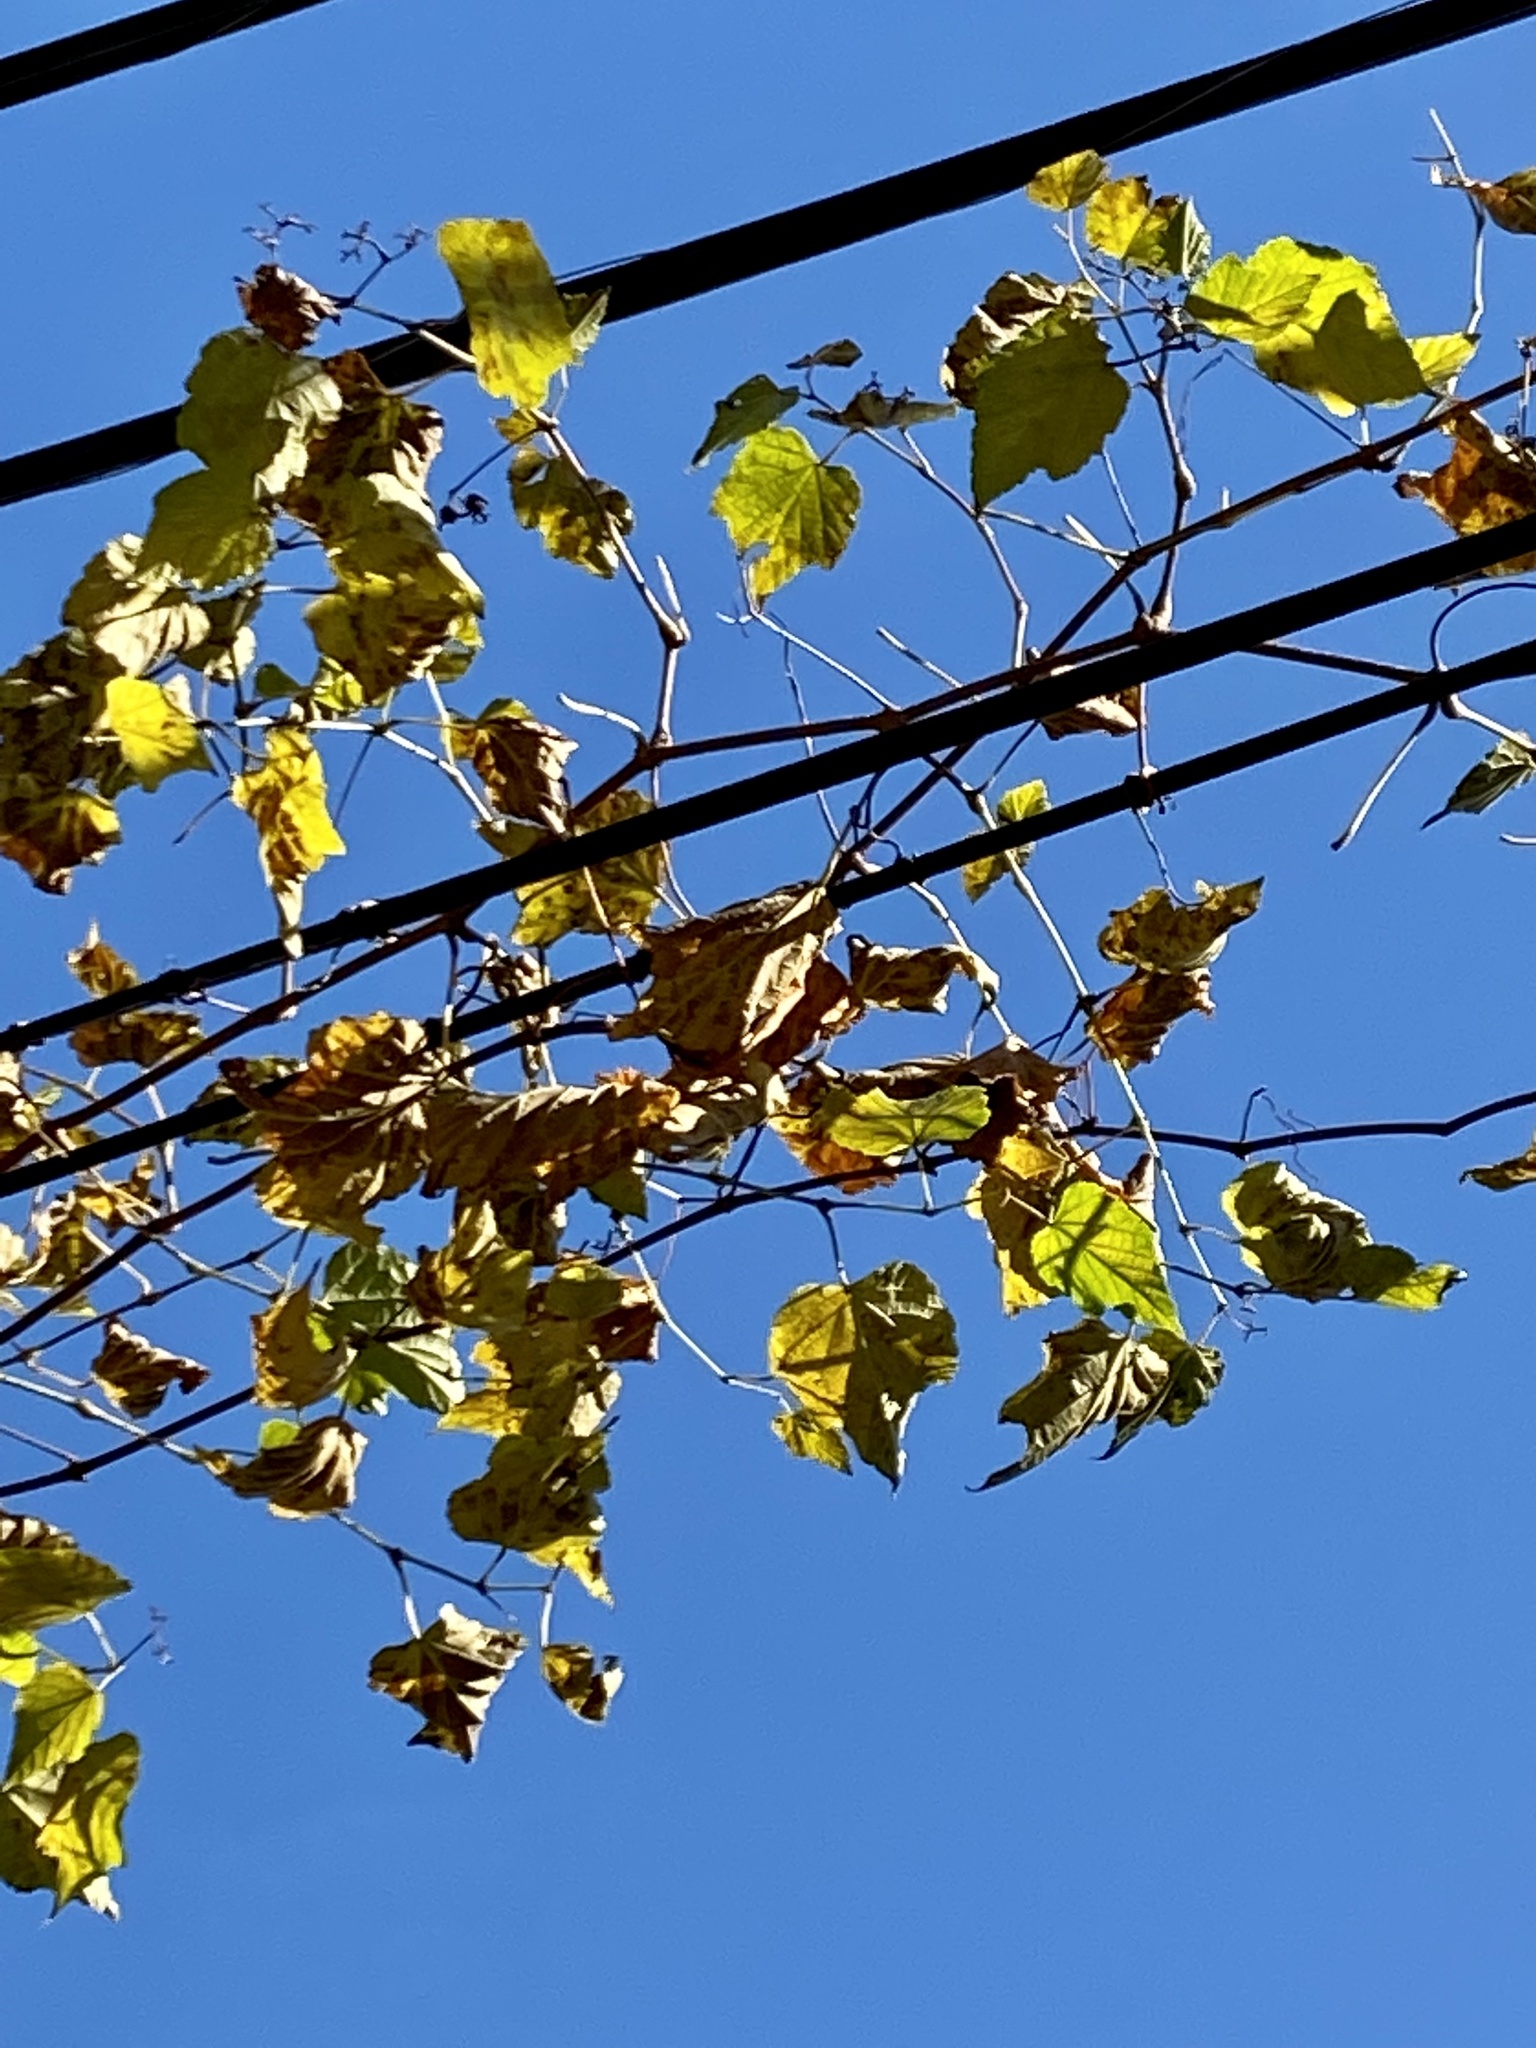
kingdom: Plantae
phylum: Tracheophyta
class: Magnoliopsida
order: Vitales
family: Vitaceae
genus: Ampelopsis
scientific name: Ampelopsis glandulosa
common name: Amur peppervine
